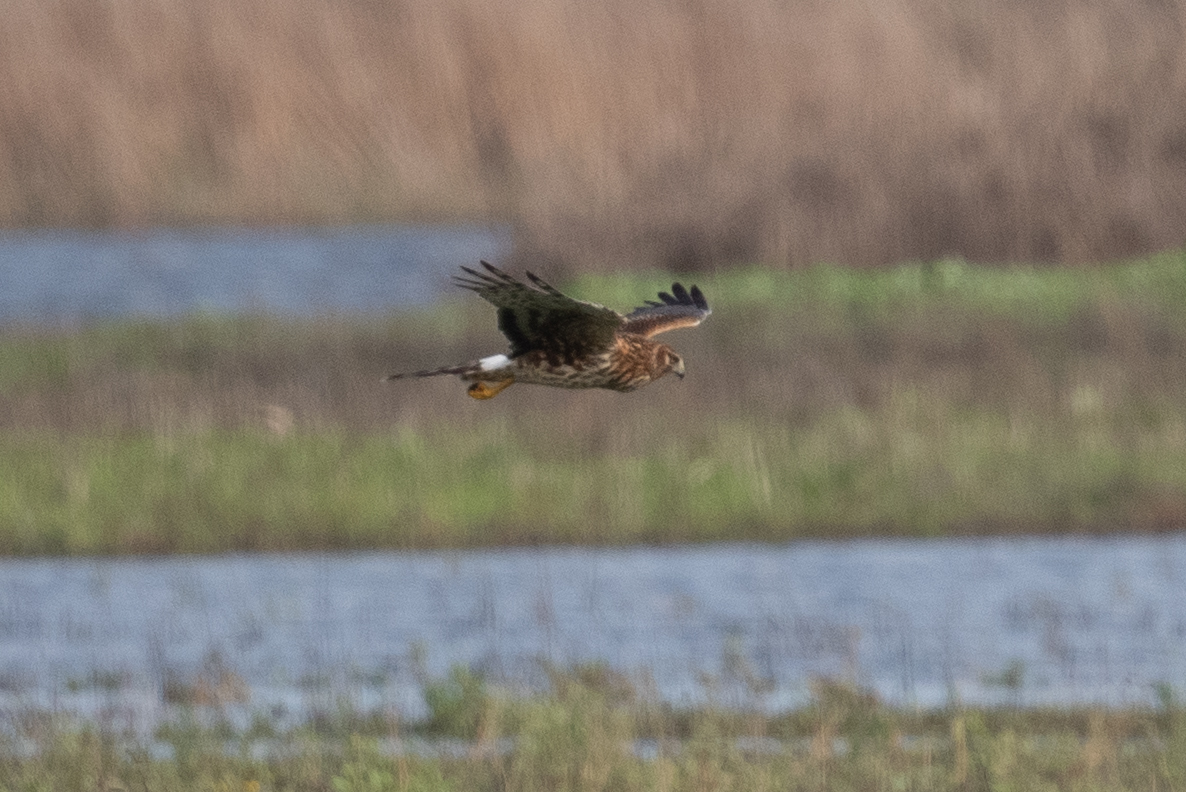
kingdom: Animalia
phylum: Chordata
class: Aves
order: Accipitriformes
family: Accipitridae
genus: Circus
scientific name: Circus cyaneus
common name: Hen harrier
